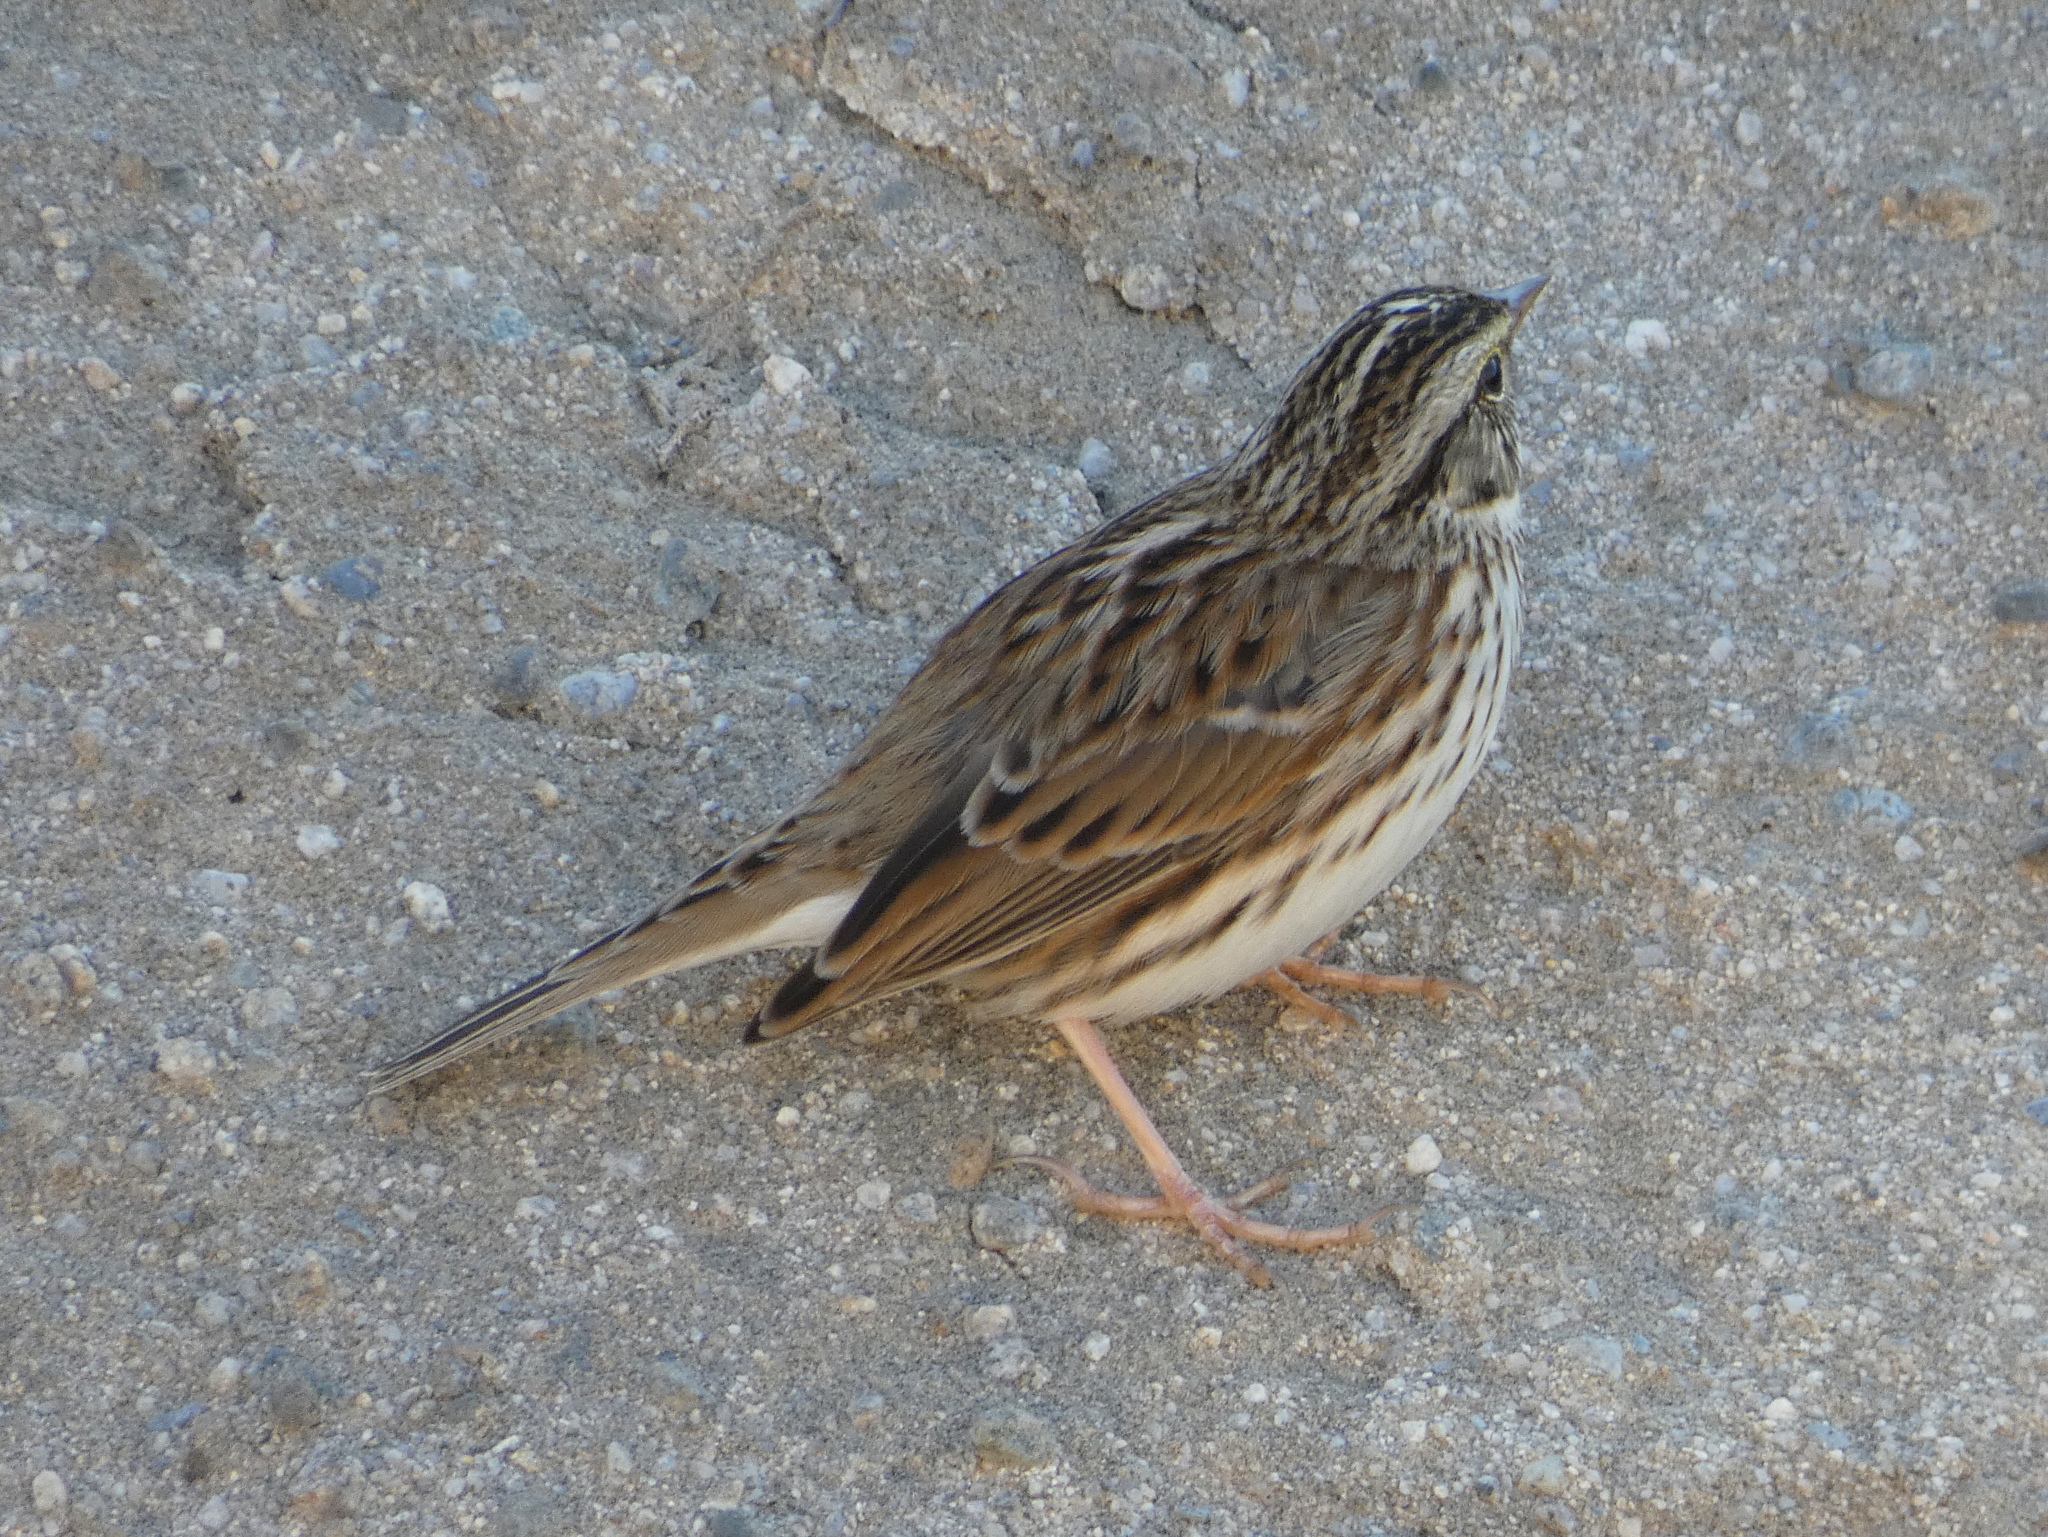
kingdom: Animalia
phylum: Chordata
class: Aves
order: Passeriformes
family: Passerellidae
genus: Passerculus
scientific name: Passerculus sandwichensis
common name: Savannah sparrow
